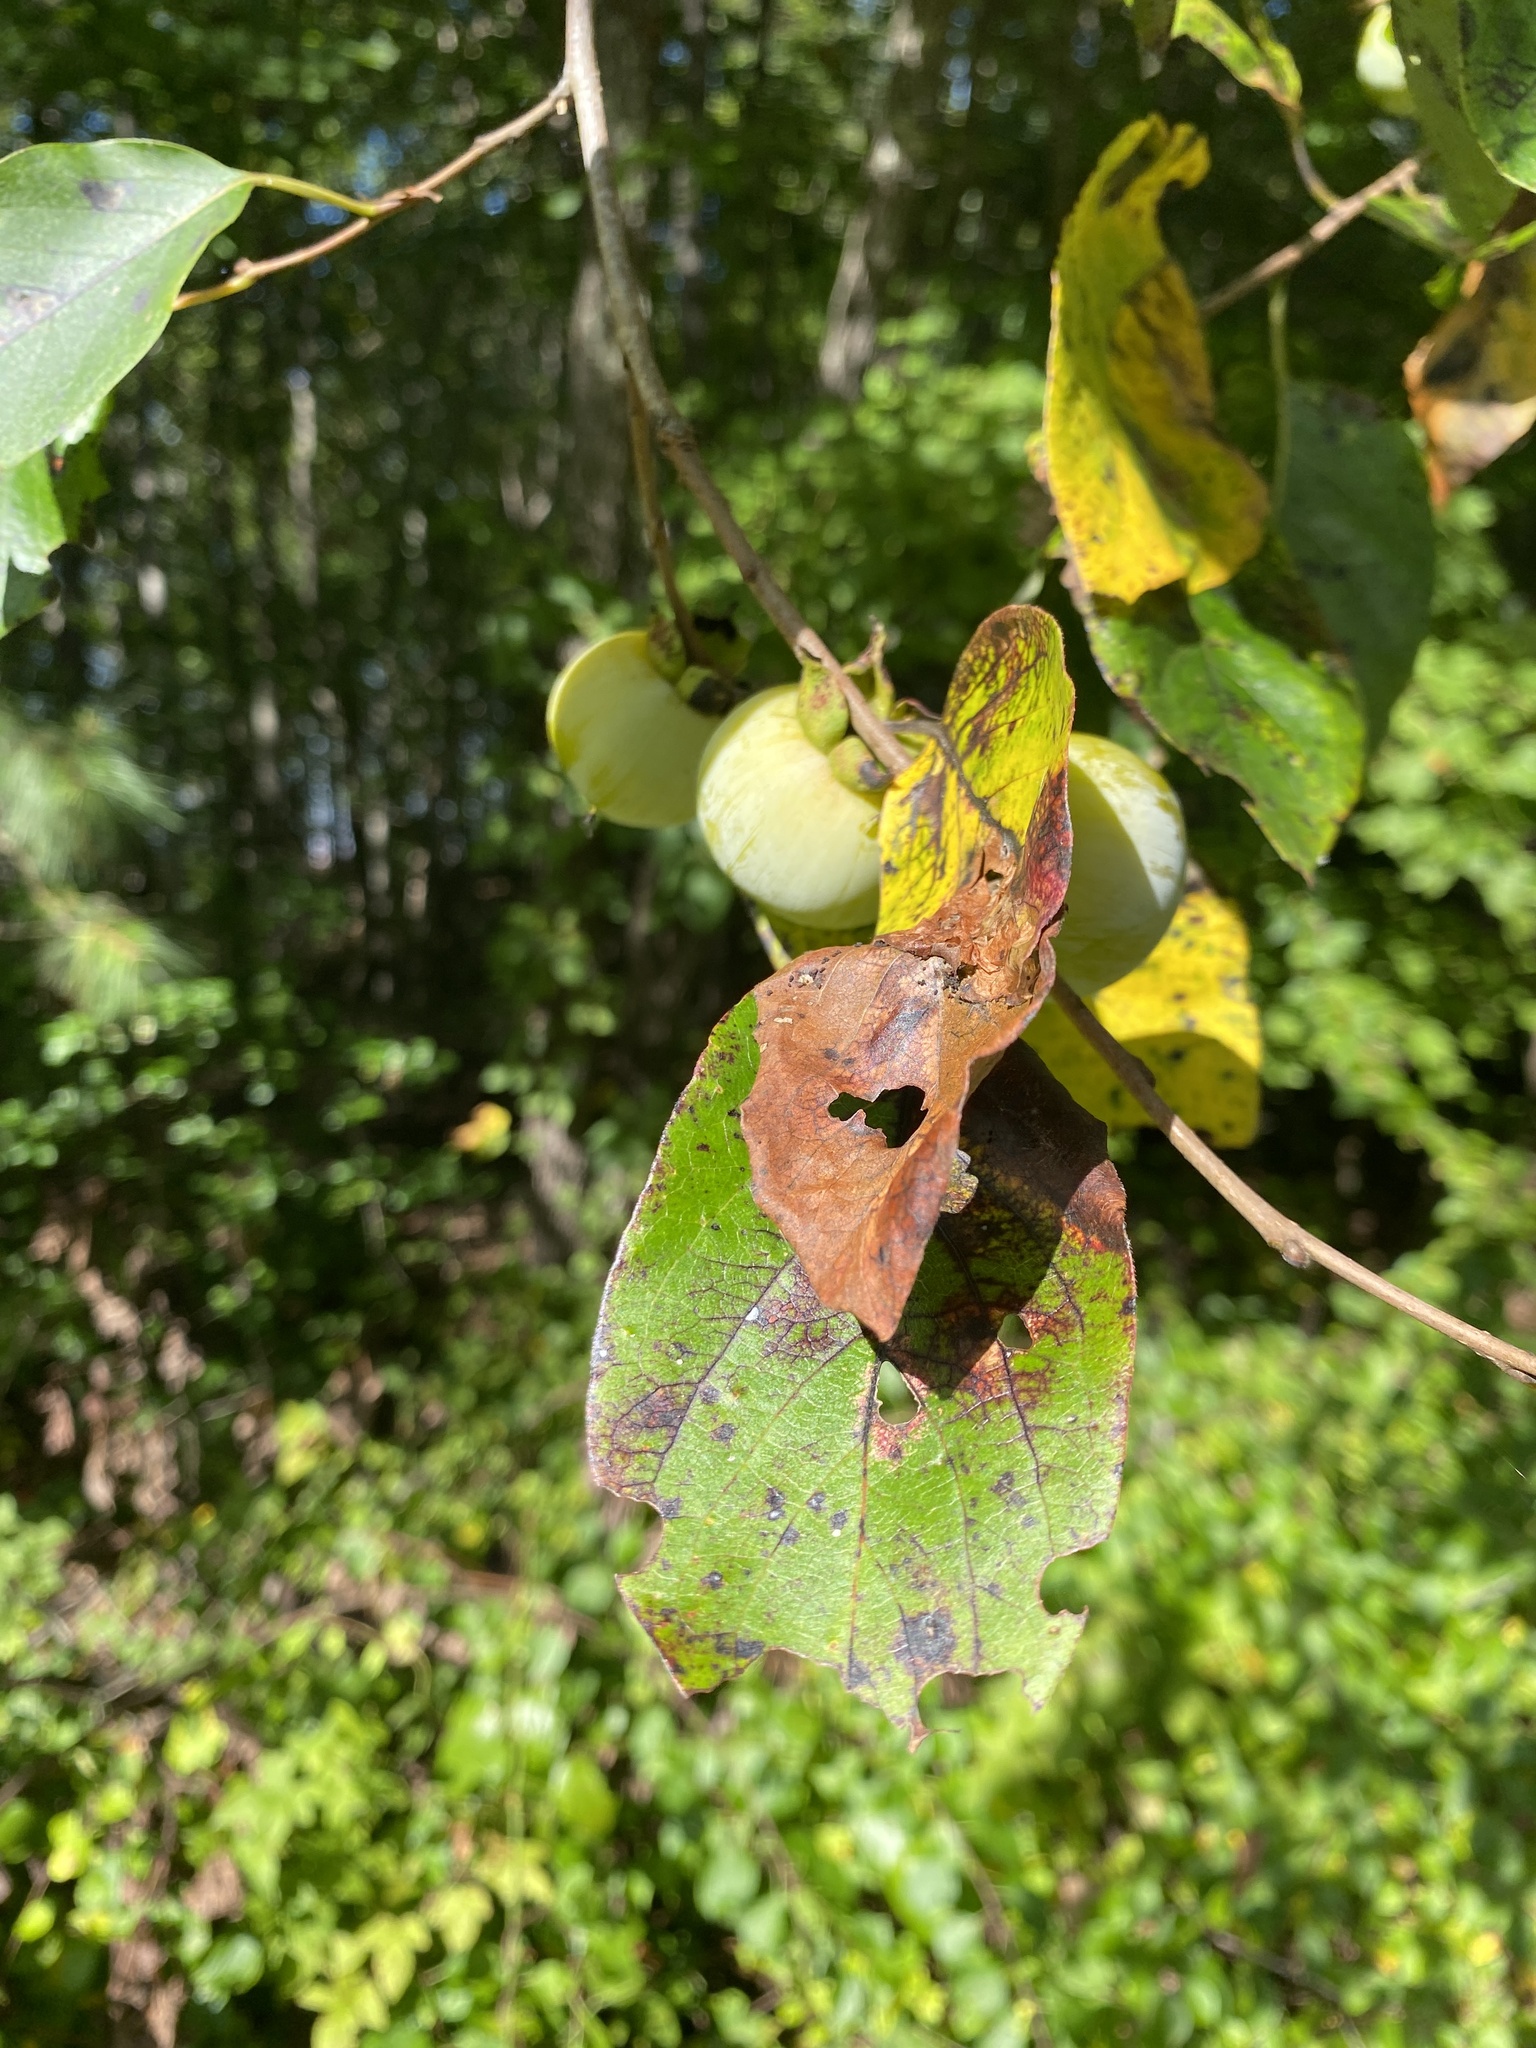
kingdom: Plantae
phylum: Tracheophyta
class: Magnoliopsida
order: Ericales
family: Ebenaceae
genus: Diospyros
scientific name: Diospyros virginiana
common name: Persimmon
